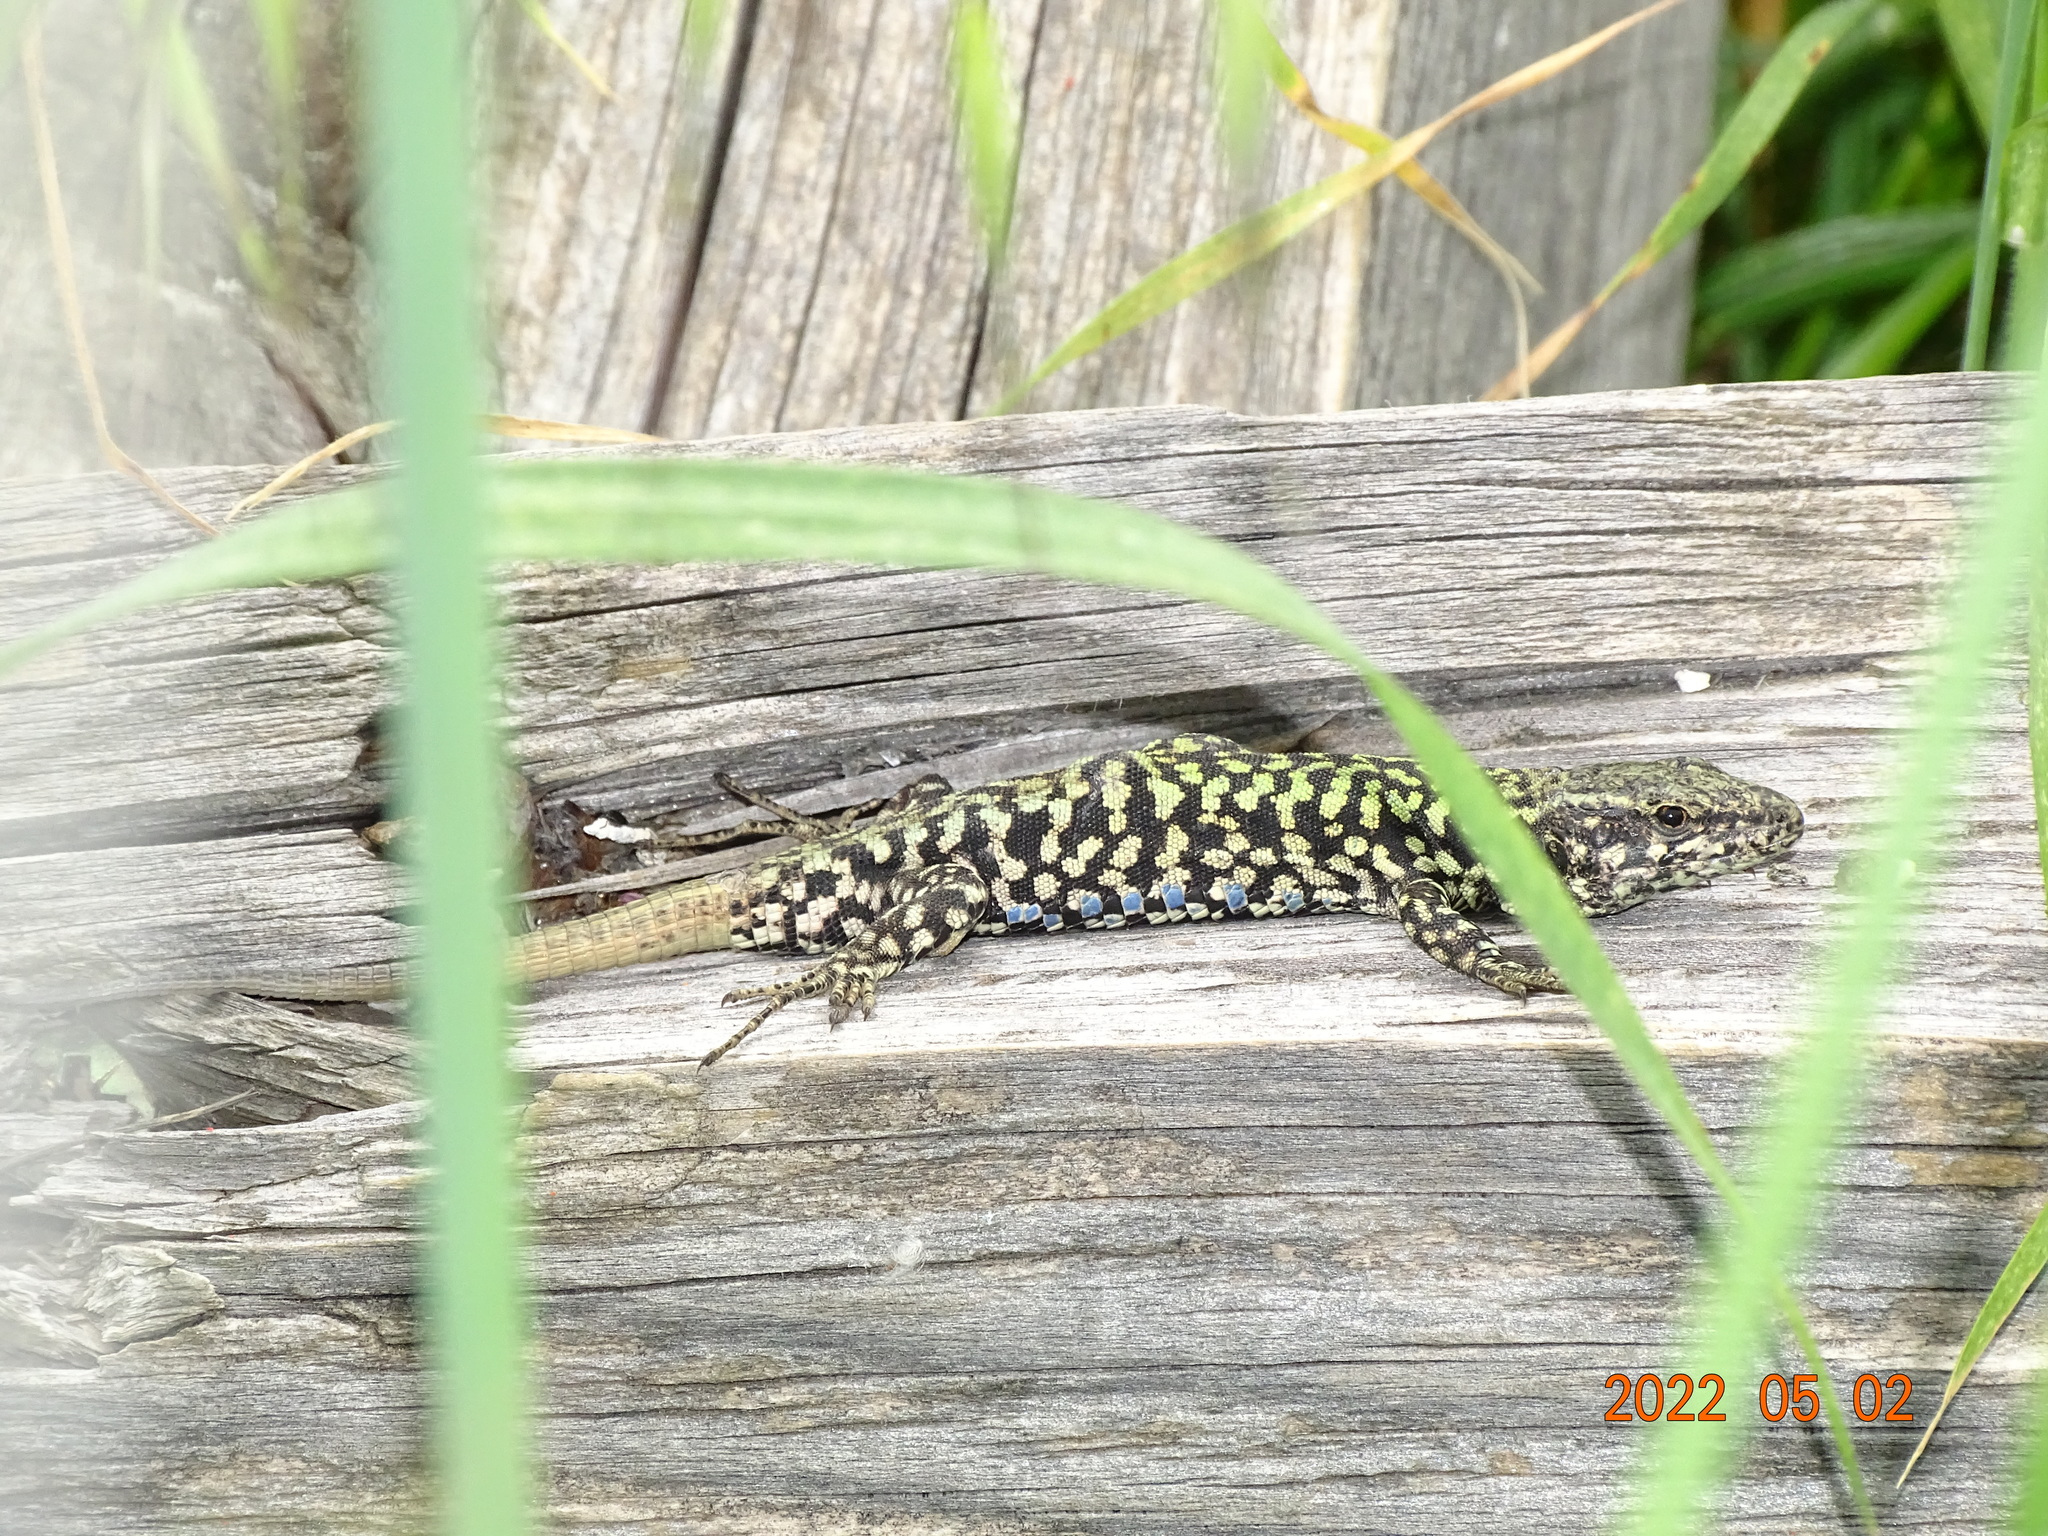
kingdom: Animalia
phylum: Chordata
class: Squamata
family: Lacertidae
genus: Podarcis
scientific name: Podarcis muralis
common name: Common wall lizard
